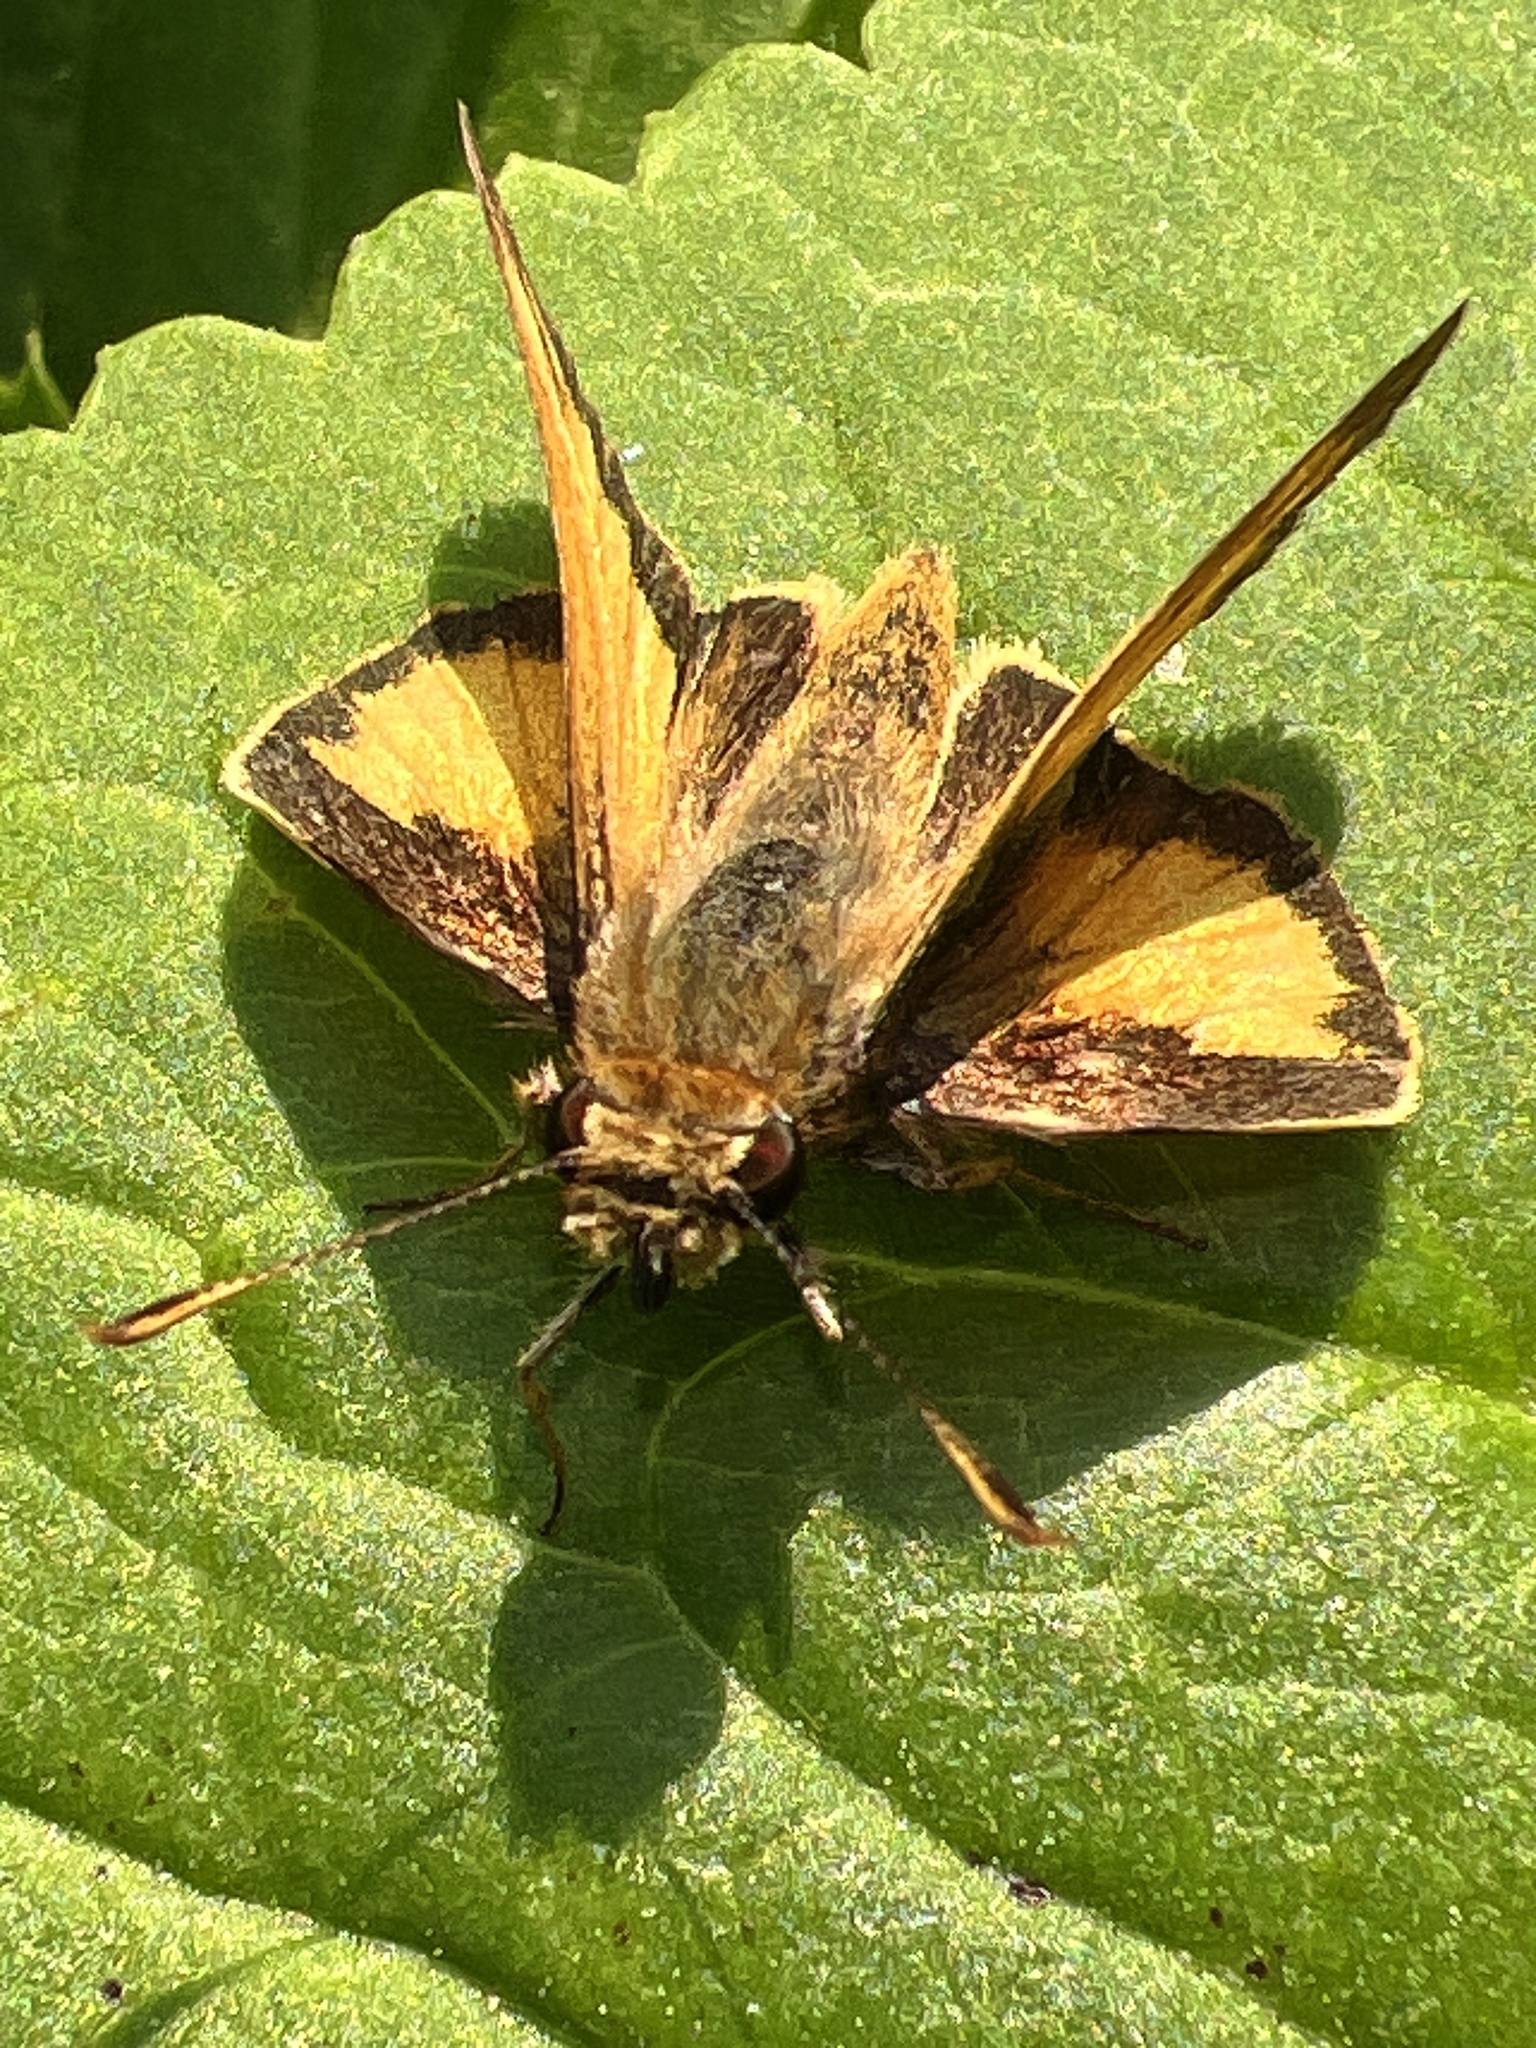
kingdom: Animalia
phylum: Arthropoda
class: Insecta
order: Lepidoptera
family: Hesperiidae
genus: Lon
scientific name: Lon zabulon
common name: Zabulon skipper
